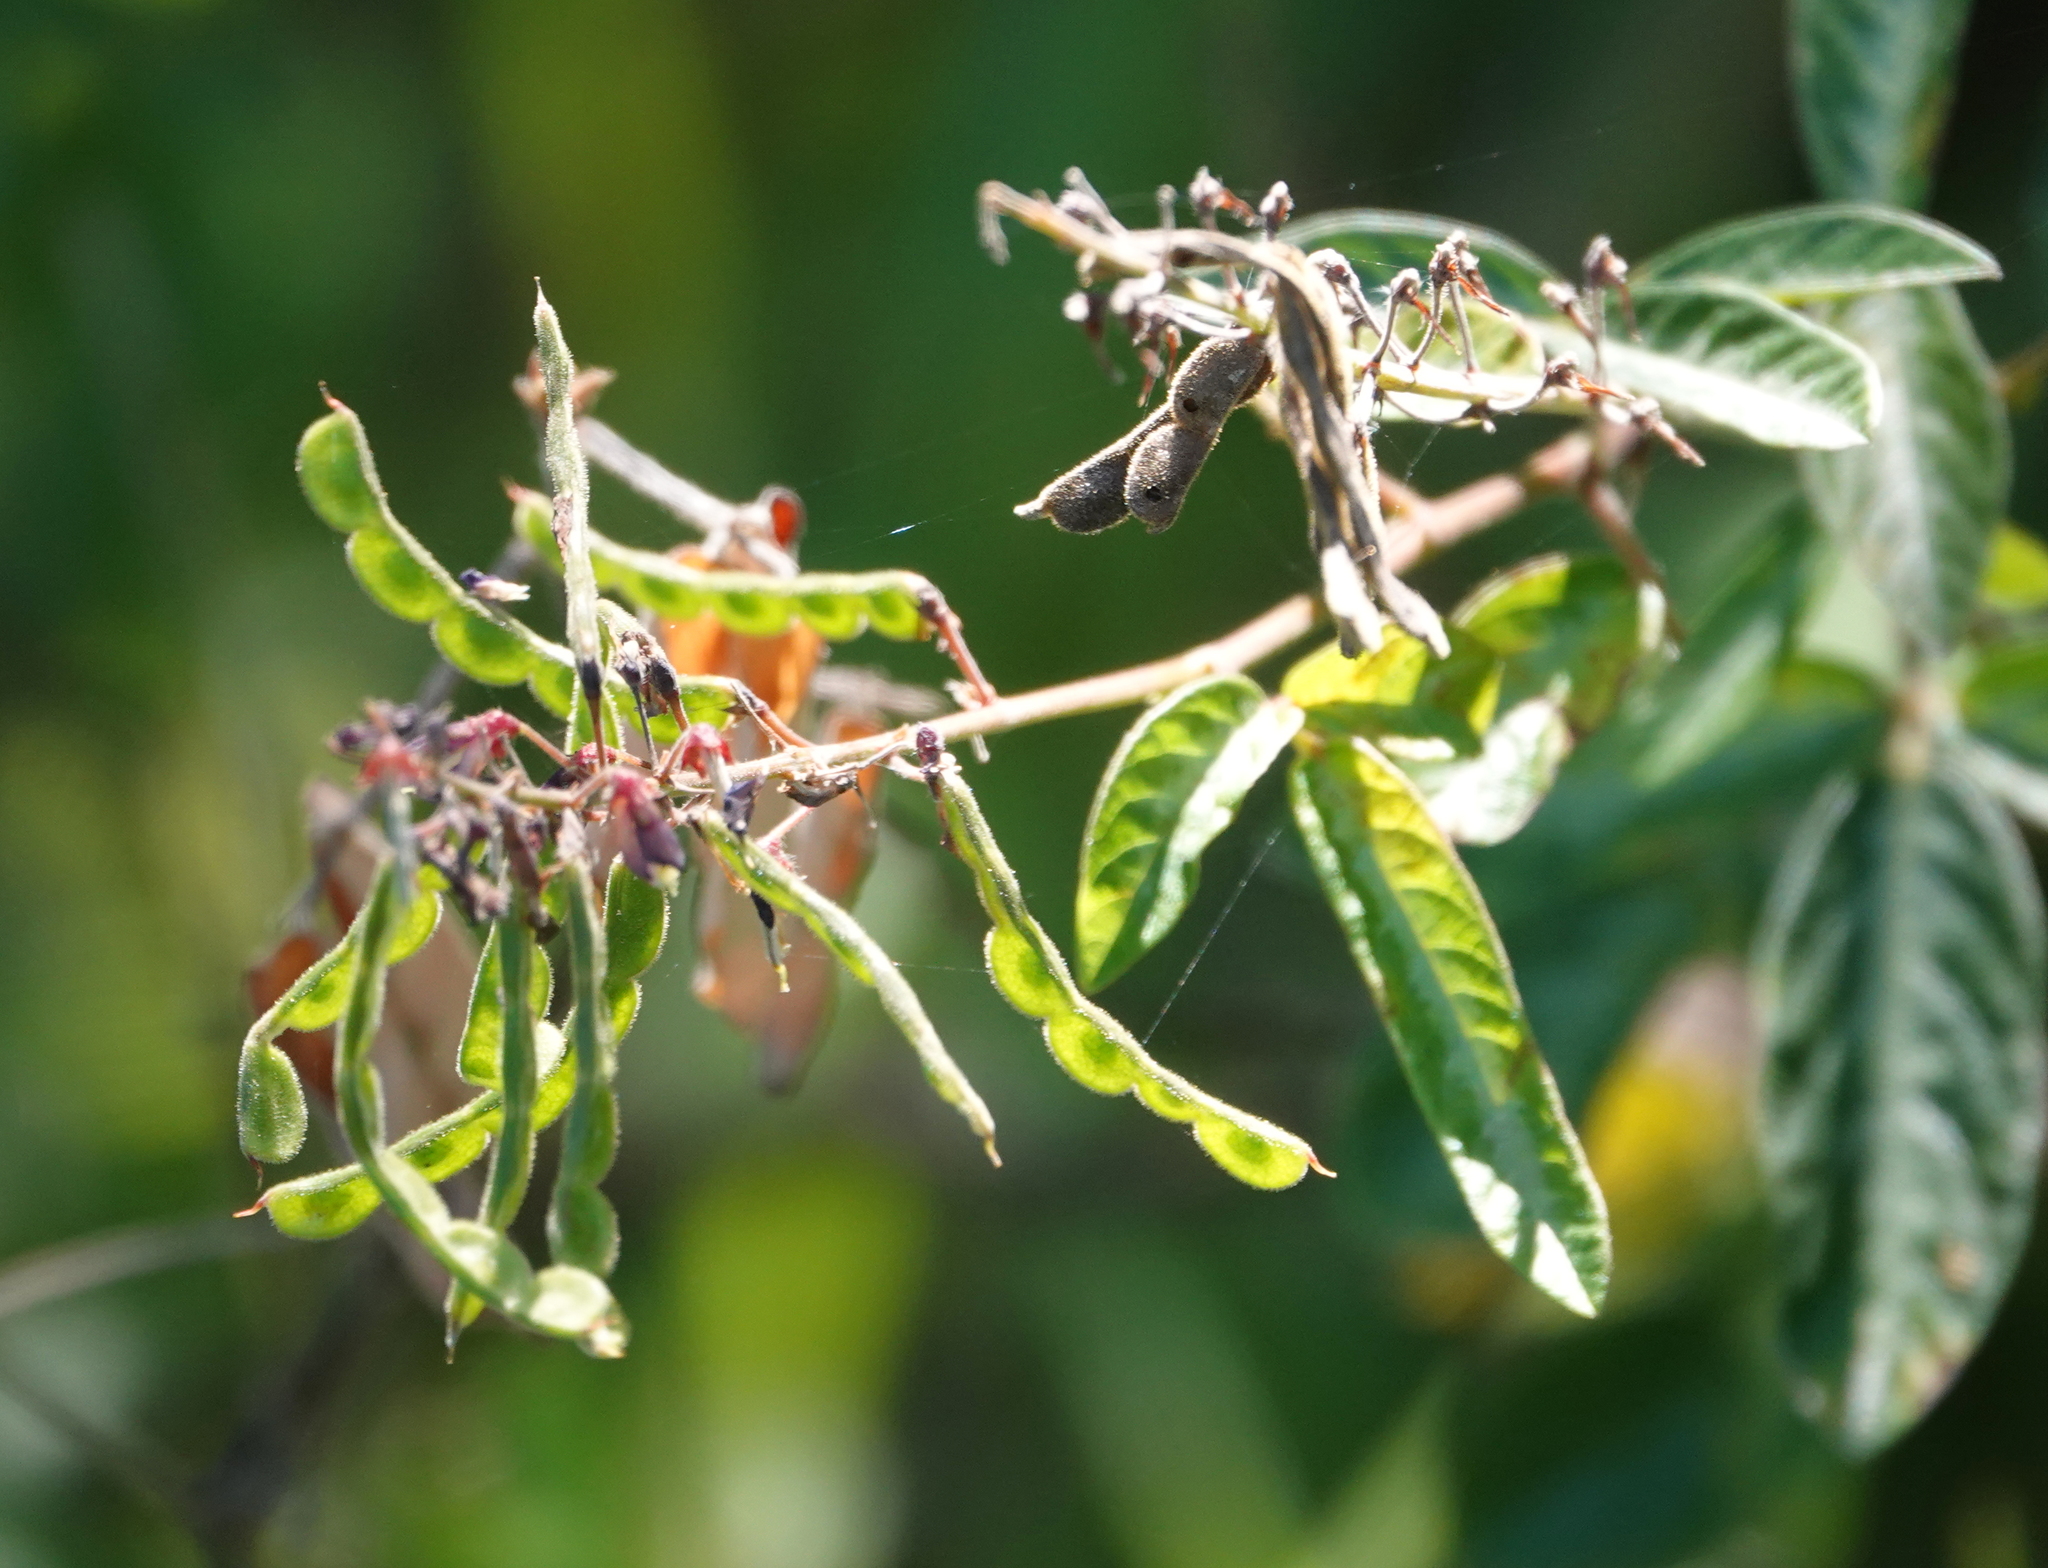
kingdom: Plantae
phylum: Tracheophyta
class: Magnoliopsida
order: Fabales
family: Fabaceae
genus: Desmodium
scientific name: Desmodium incanum
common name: Tickclover
